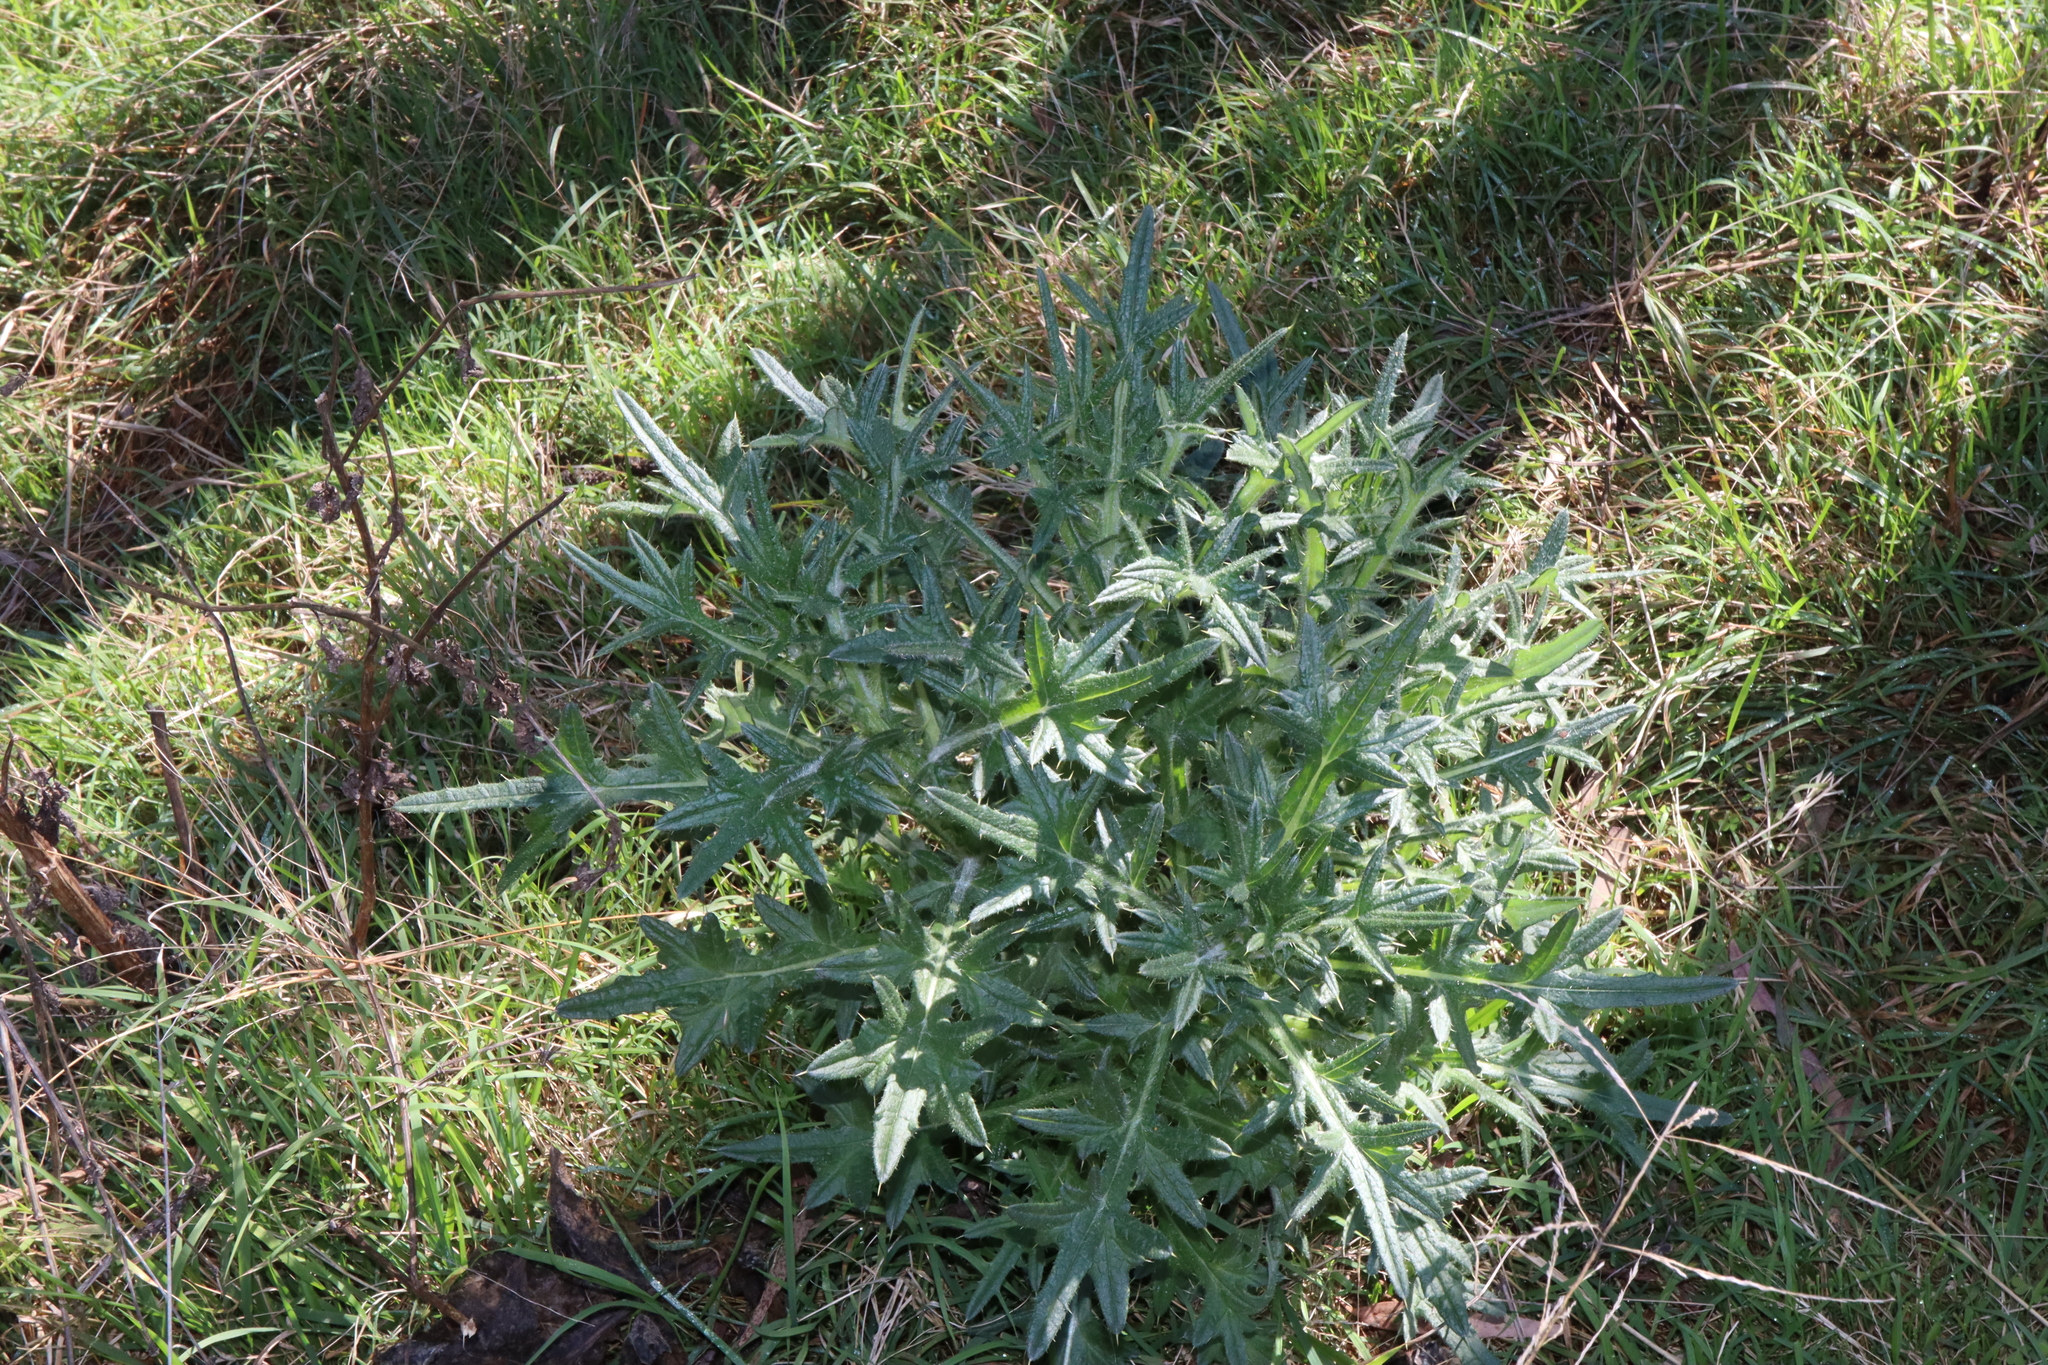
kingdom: Plantae
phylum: Tracheophyta
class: Magnoliopsida
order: Asterales
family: Asteraceae
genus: Cirsium
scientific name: Cirsium vulgare
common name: Bull thistle
